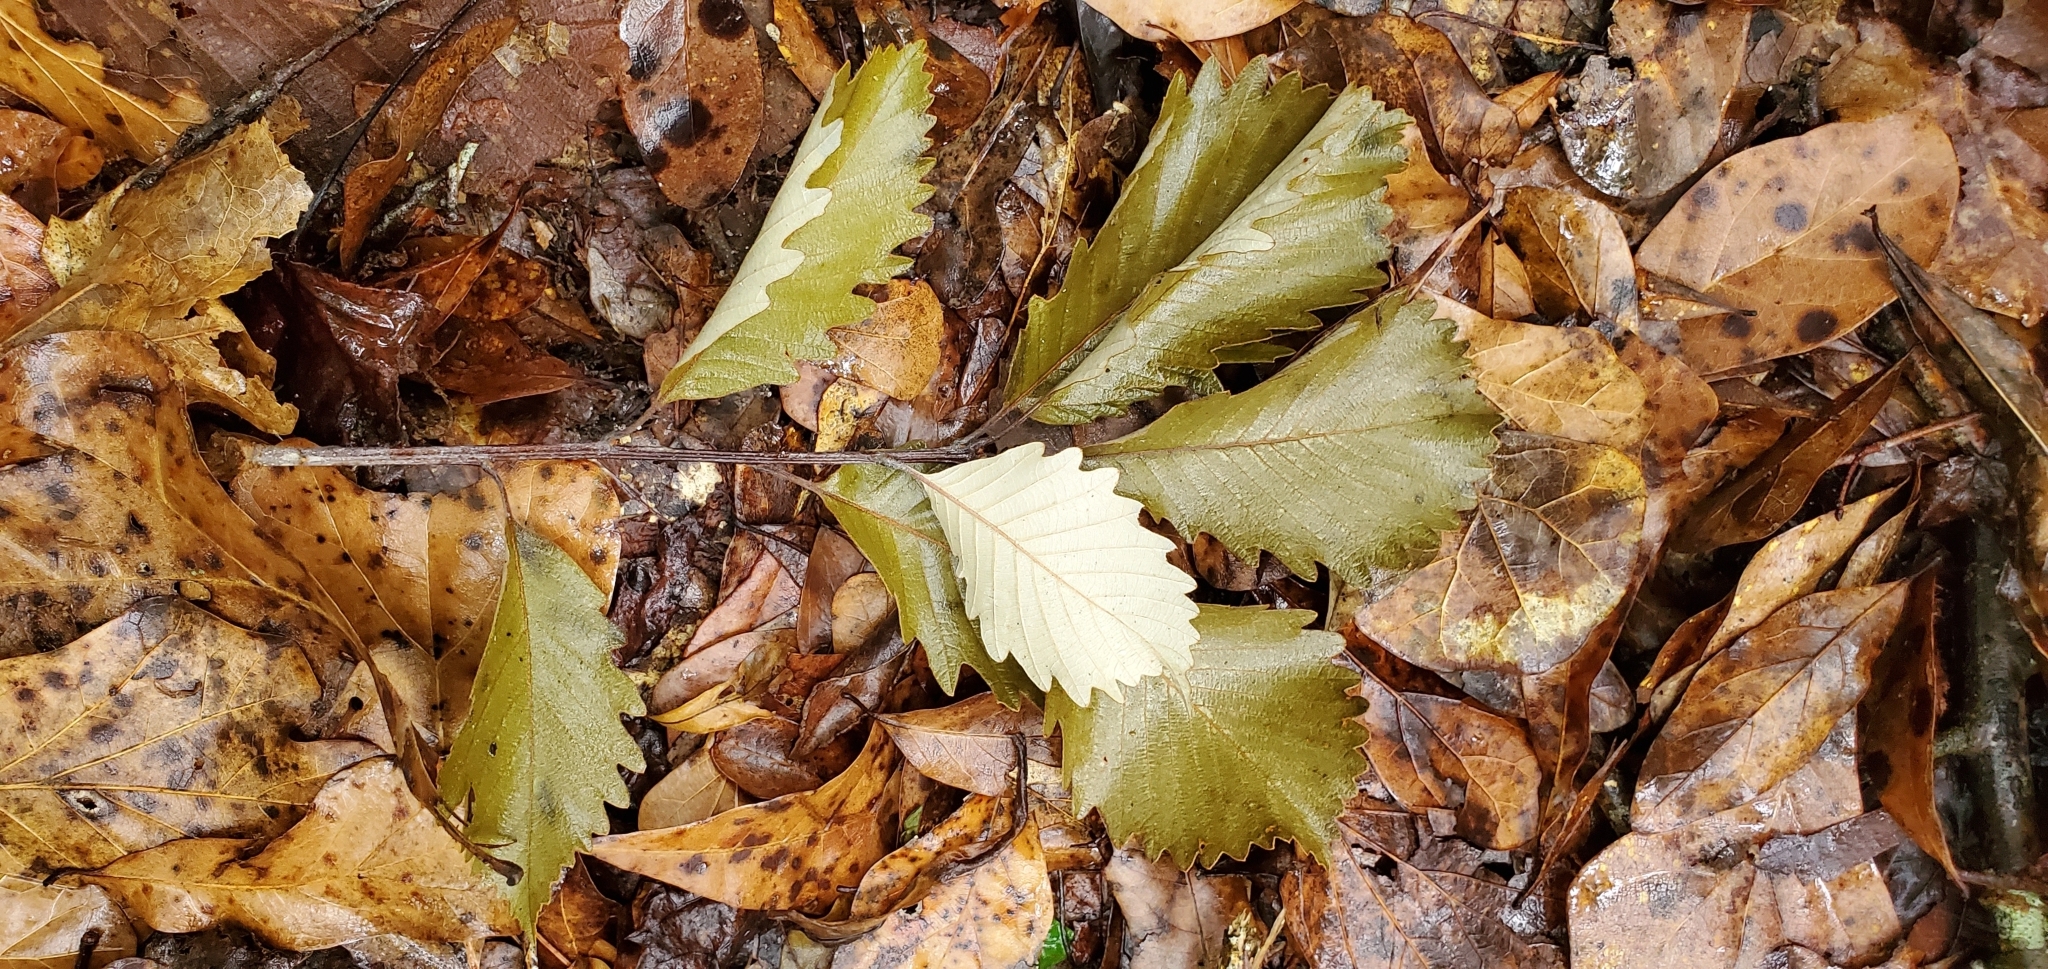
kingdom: Plantae
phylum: Tracheophyta
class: Magnoliopsida
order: Fagales
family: Fagaceae
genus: Quercus
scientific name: Quercus michauxii
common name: Swamp chestnut oak
